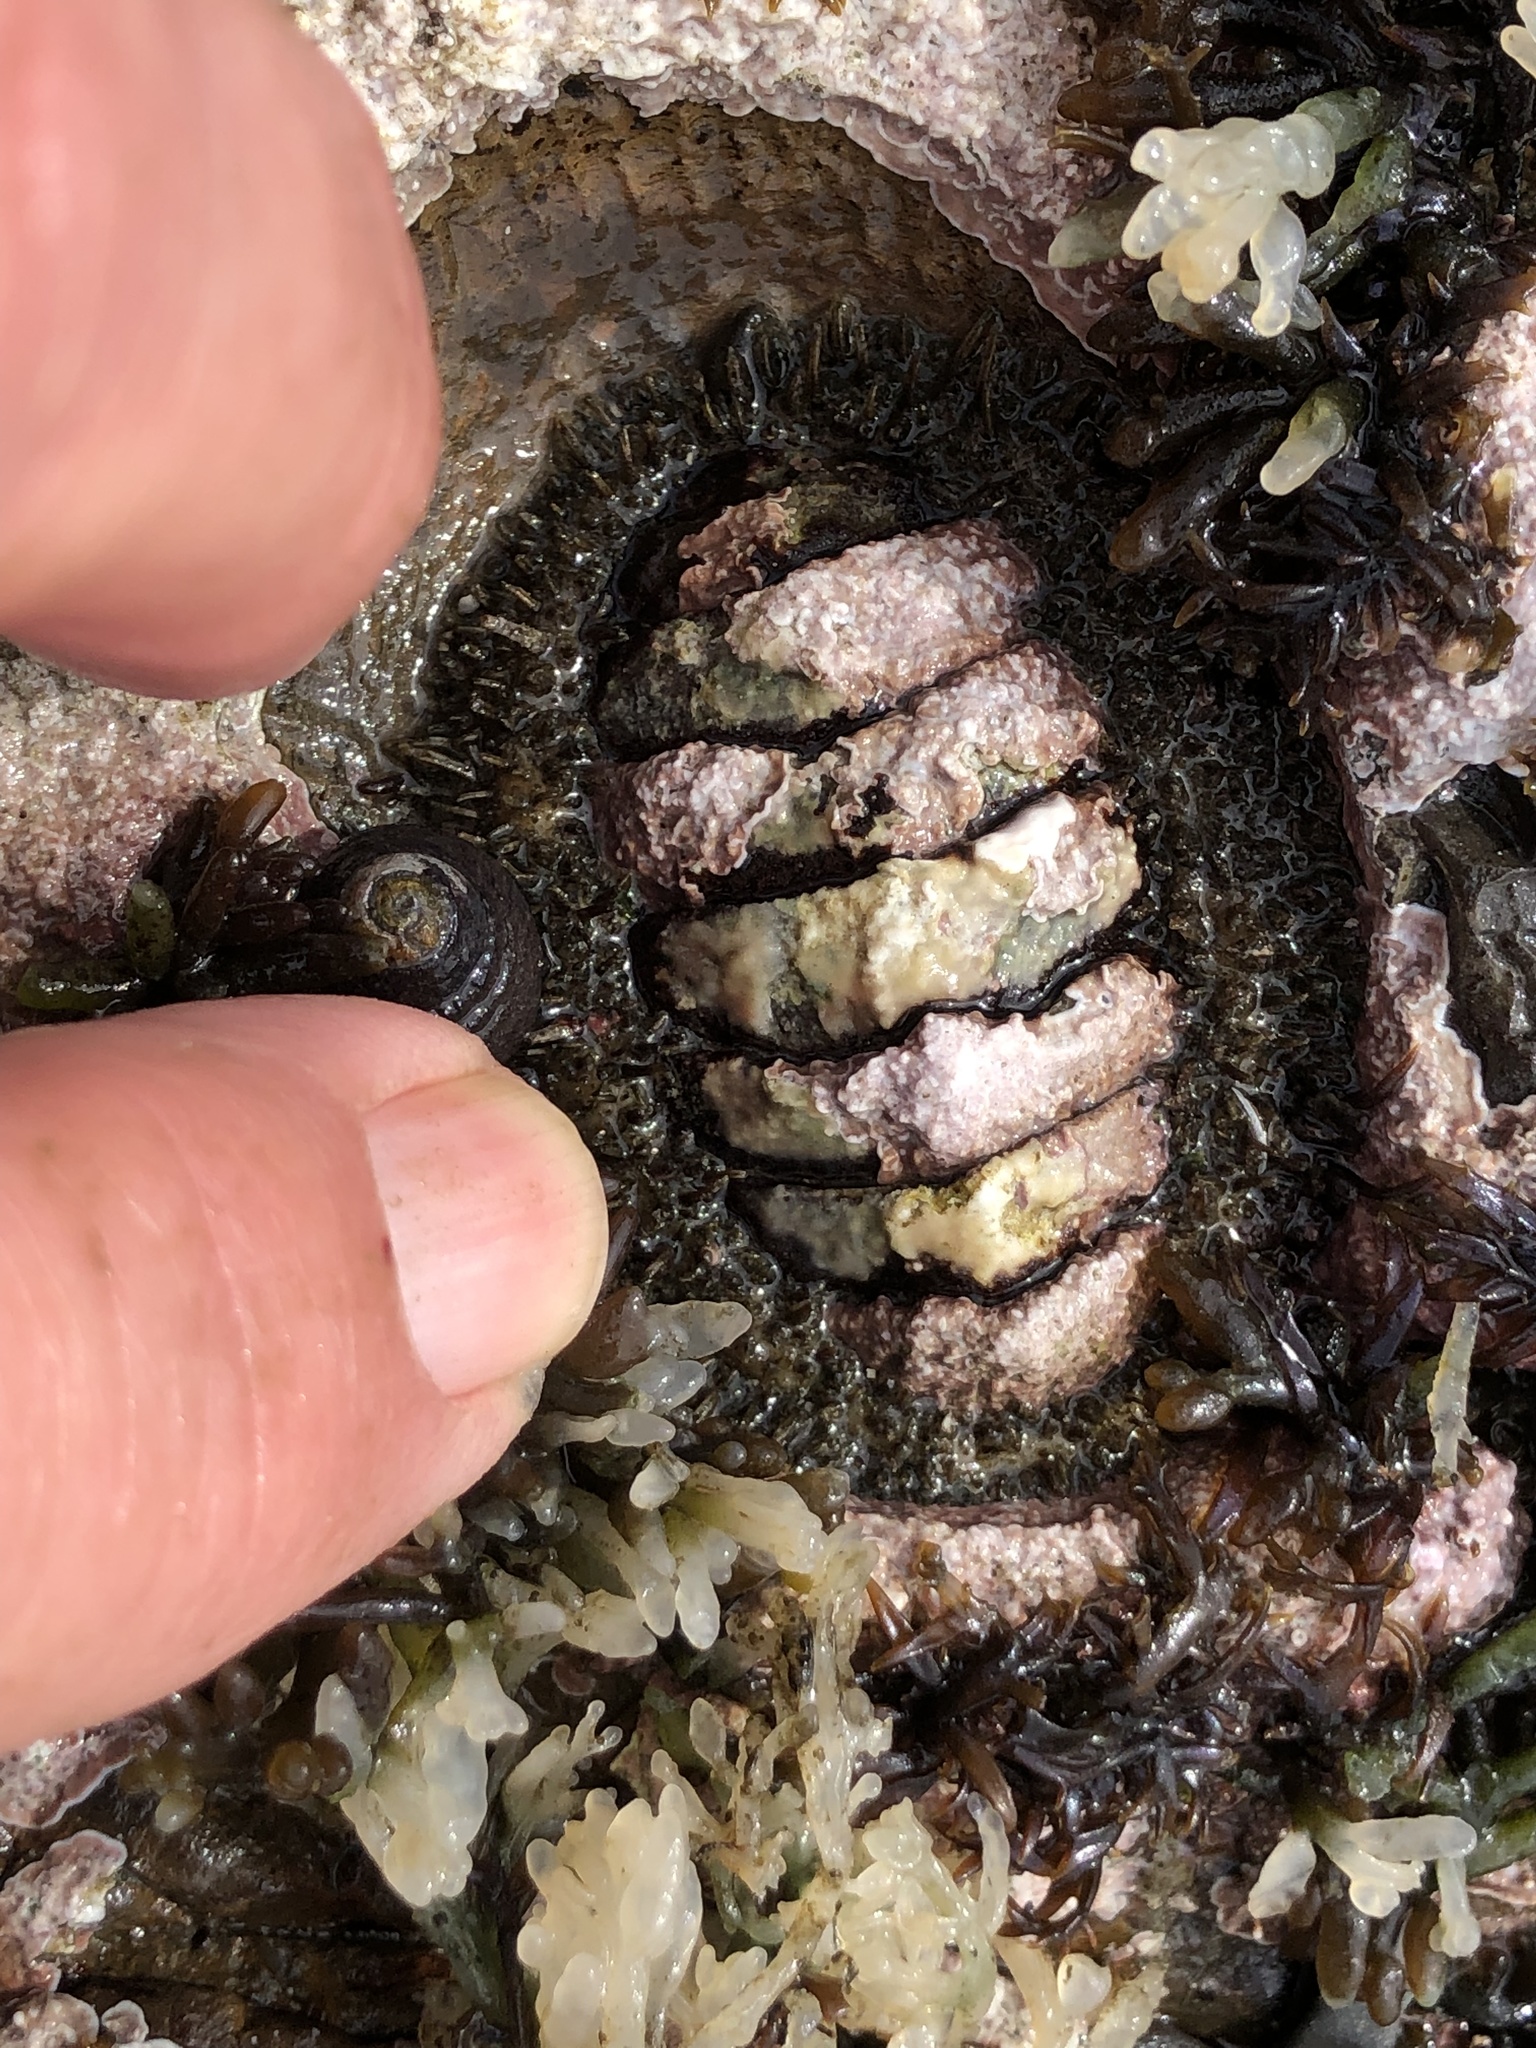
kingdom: Animalia
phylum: Mollusca
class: Polyplacophora
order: Chitonida
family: Mopaliidae
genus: Mopalia
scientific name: Mopalia muscosa
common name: Mossy chiton
